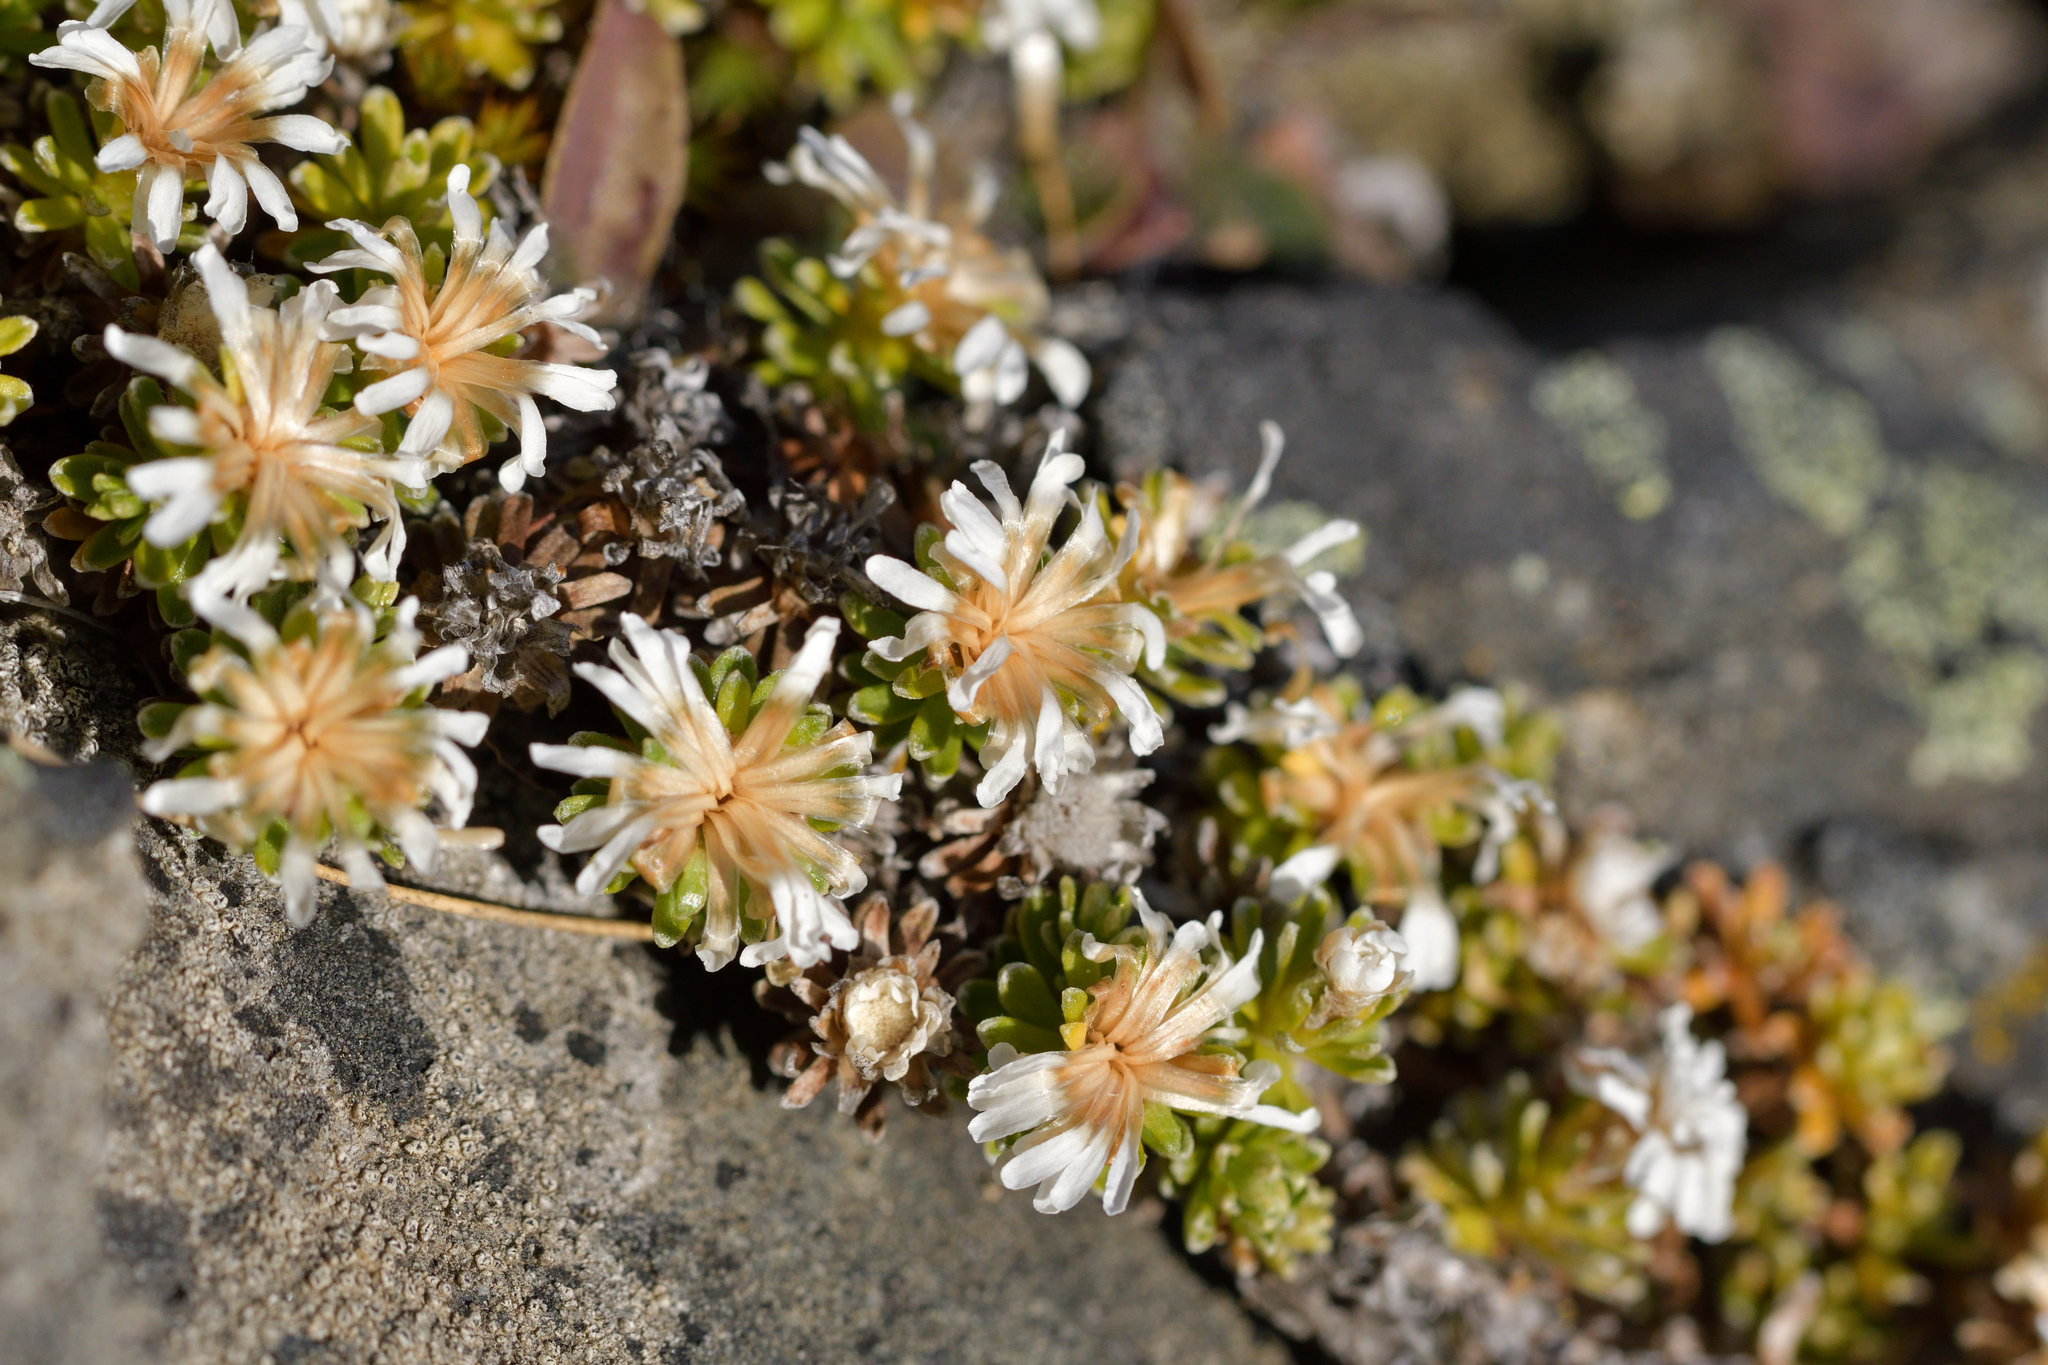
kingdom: Plantae
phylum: Tracheophyta
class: Magnoliopsida
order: Asterales
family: Asteraceae
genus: Raoulia
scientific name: Raoulia subsericea
